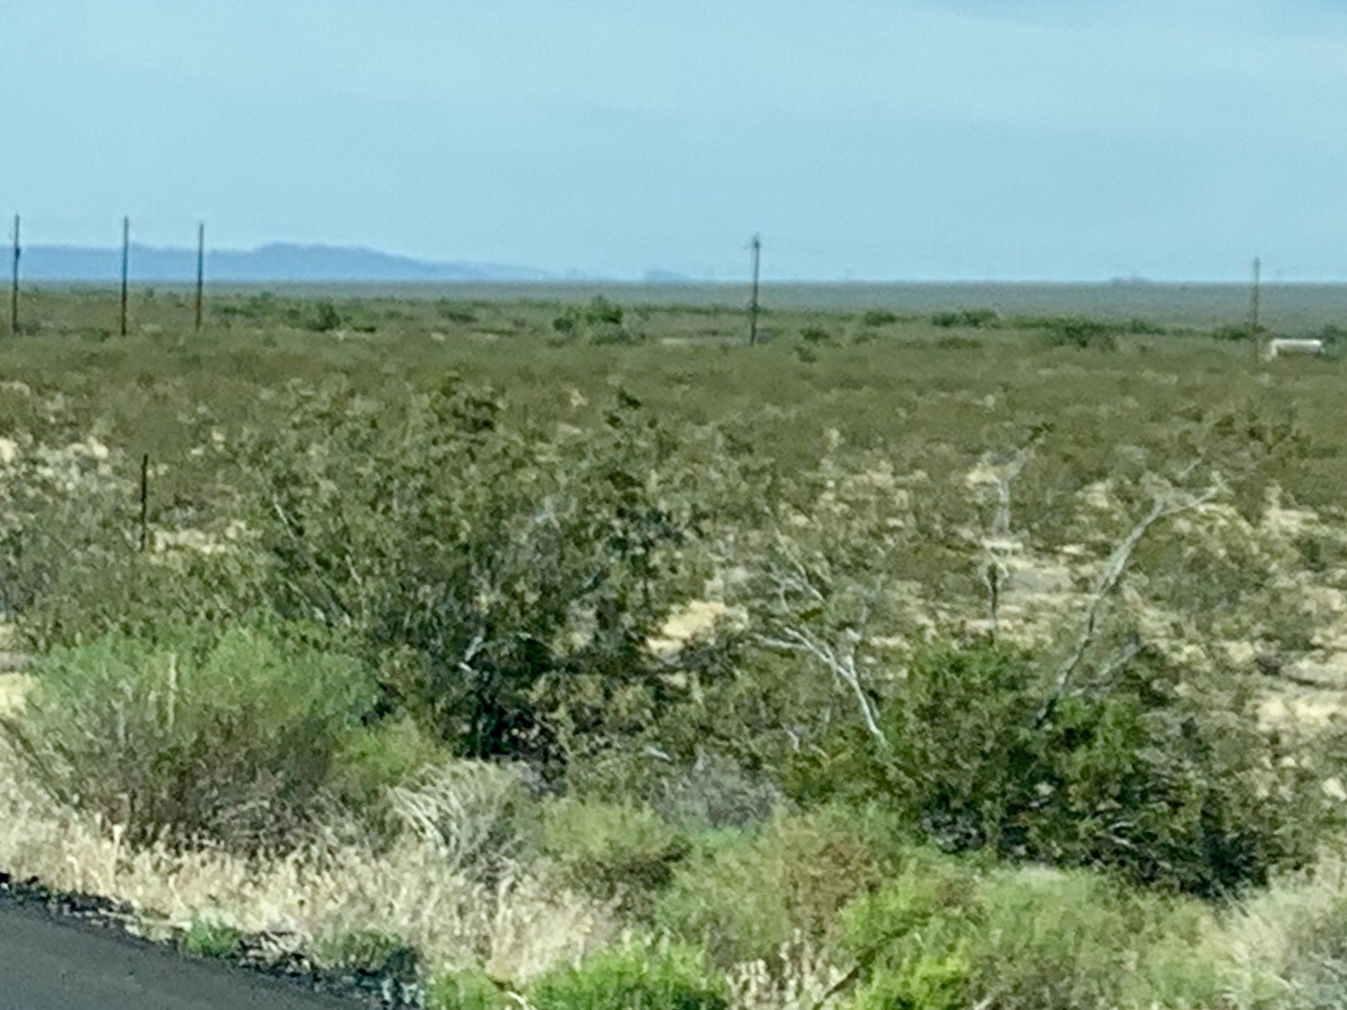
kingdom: Plantae
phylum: Tracheophyta
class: Magnoliopsida
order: Zygophyllales
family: Zygophyllaceae
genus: Larrea
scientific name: Larrea tridentata
